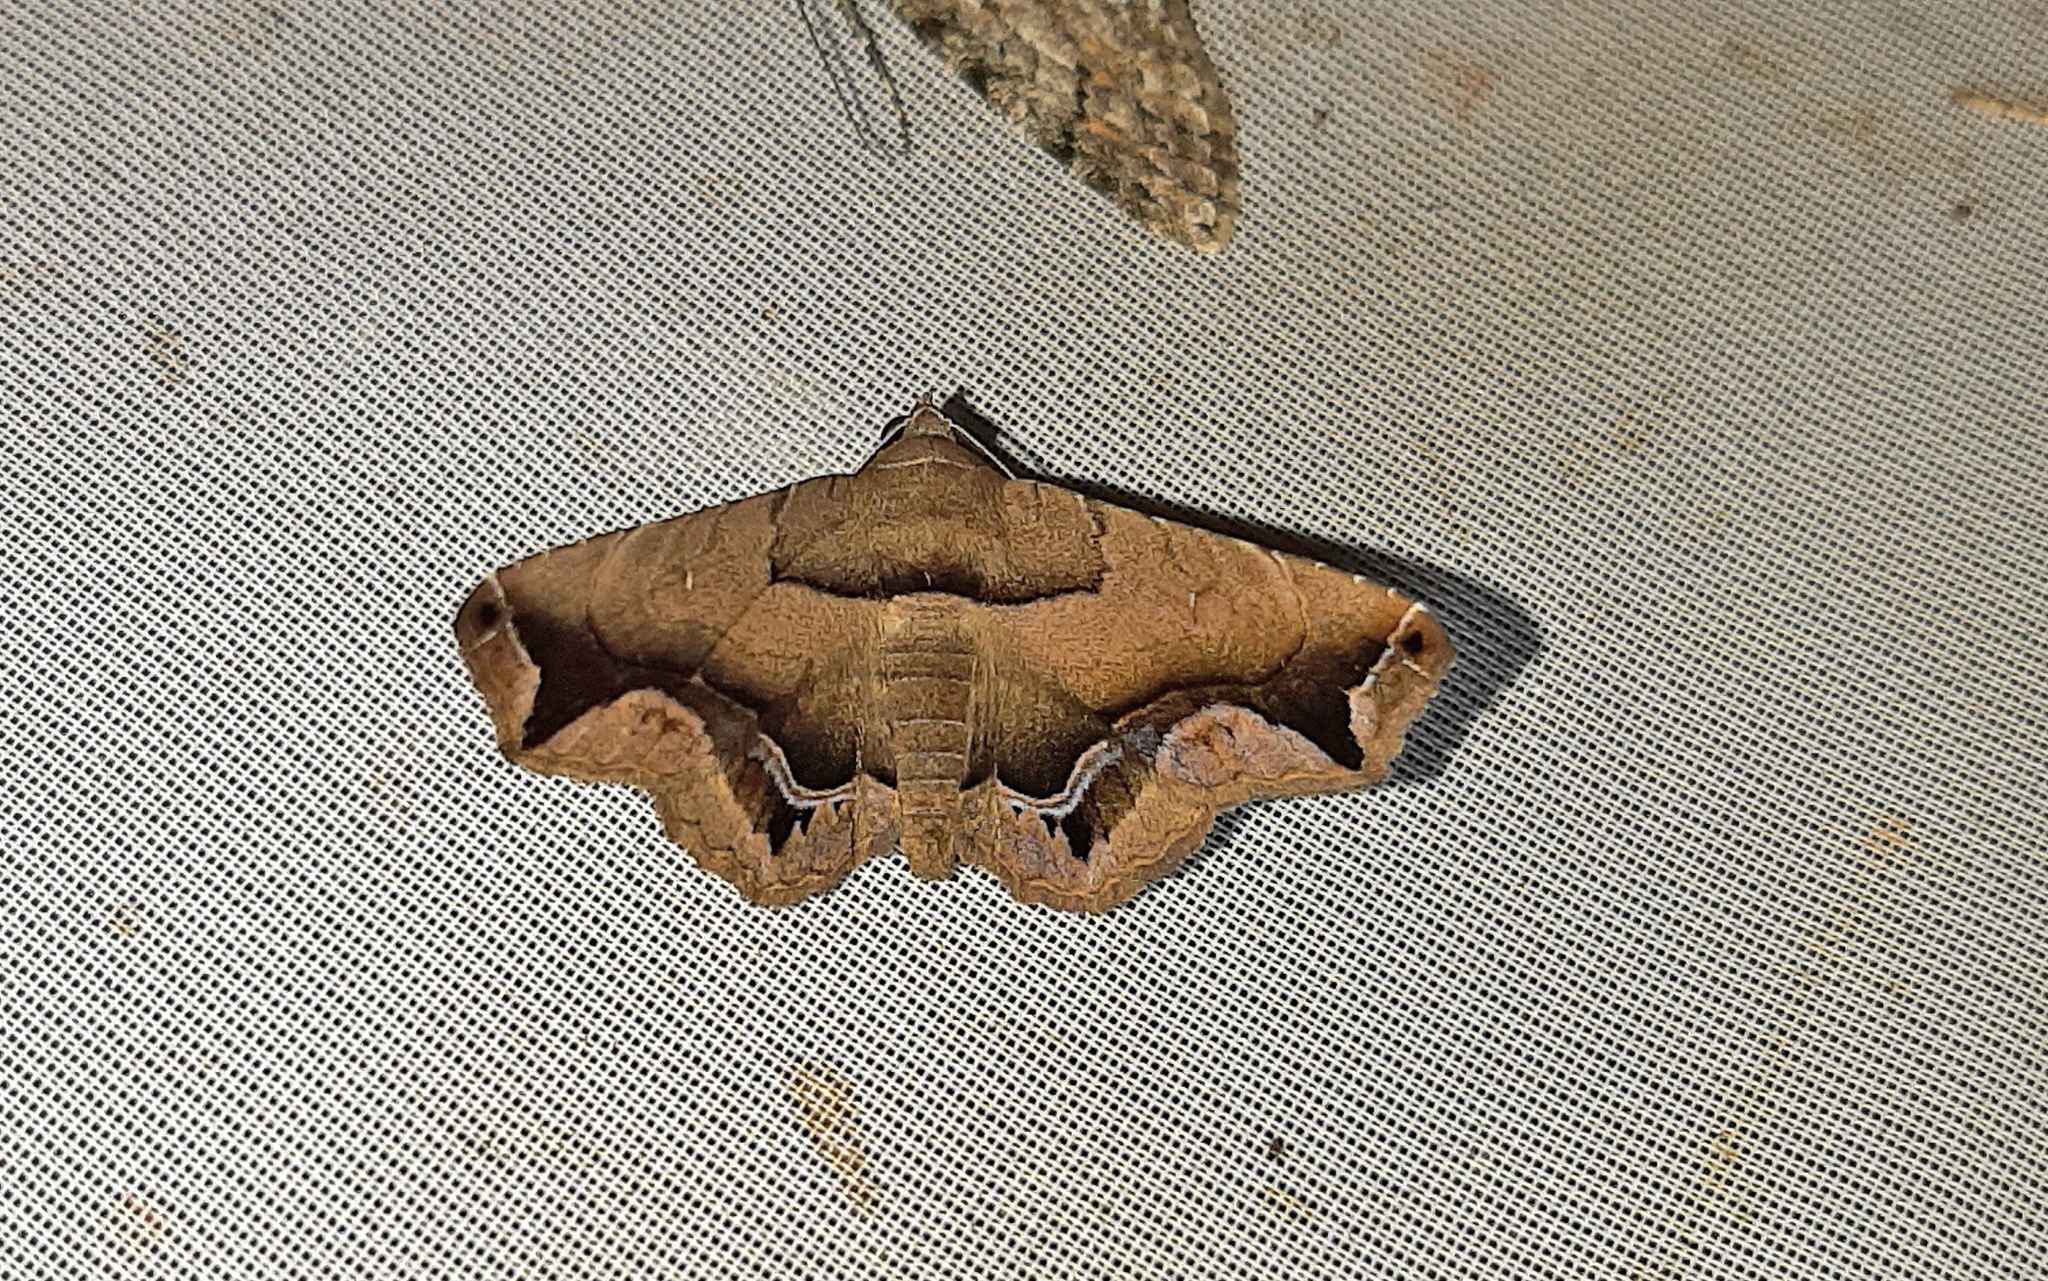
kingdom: Animalia
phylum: Arthropoda
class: Insecta
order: Lepidoptera
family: Erebidae
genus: Tyrissa
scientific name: Tyrissa acygonia
